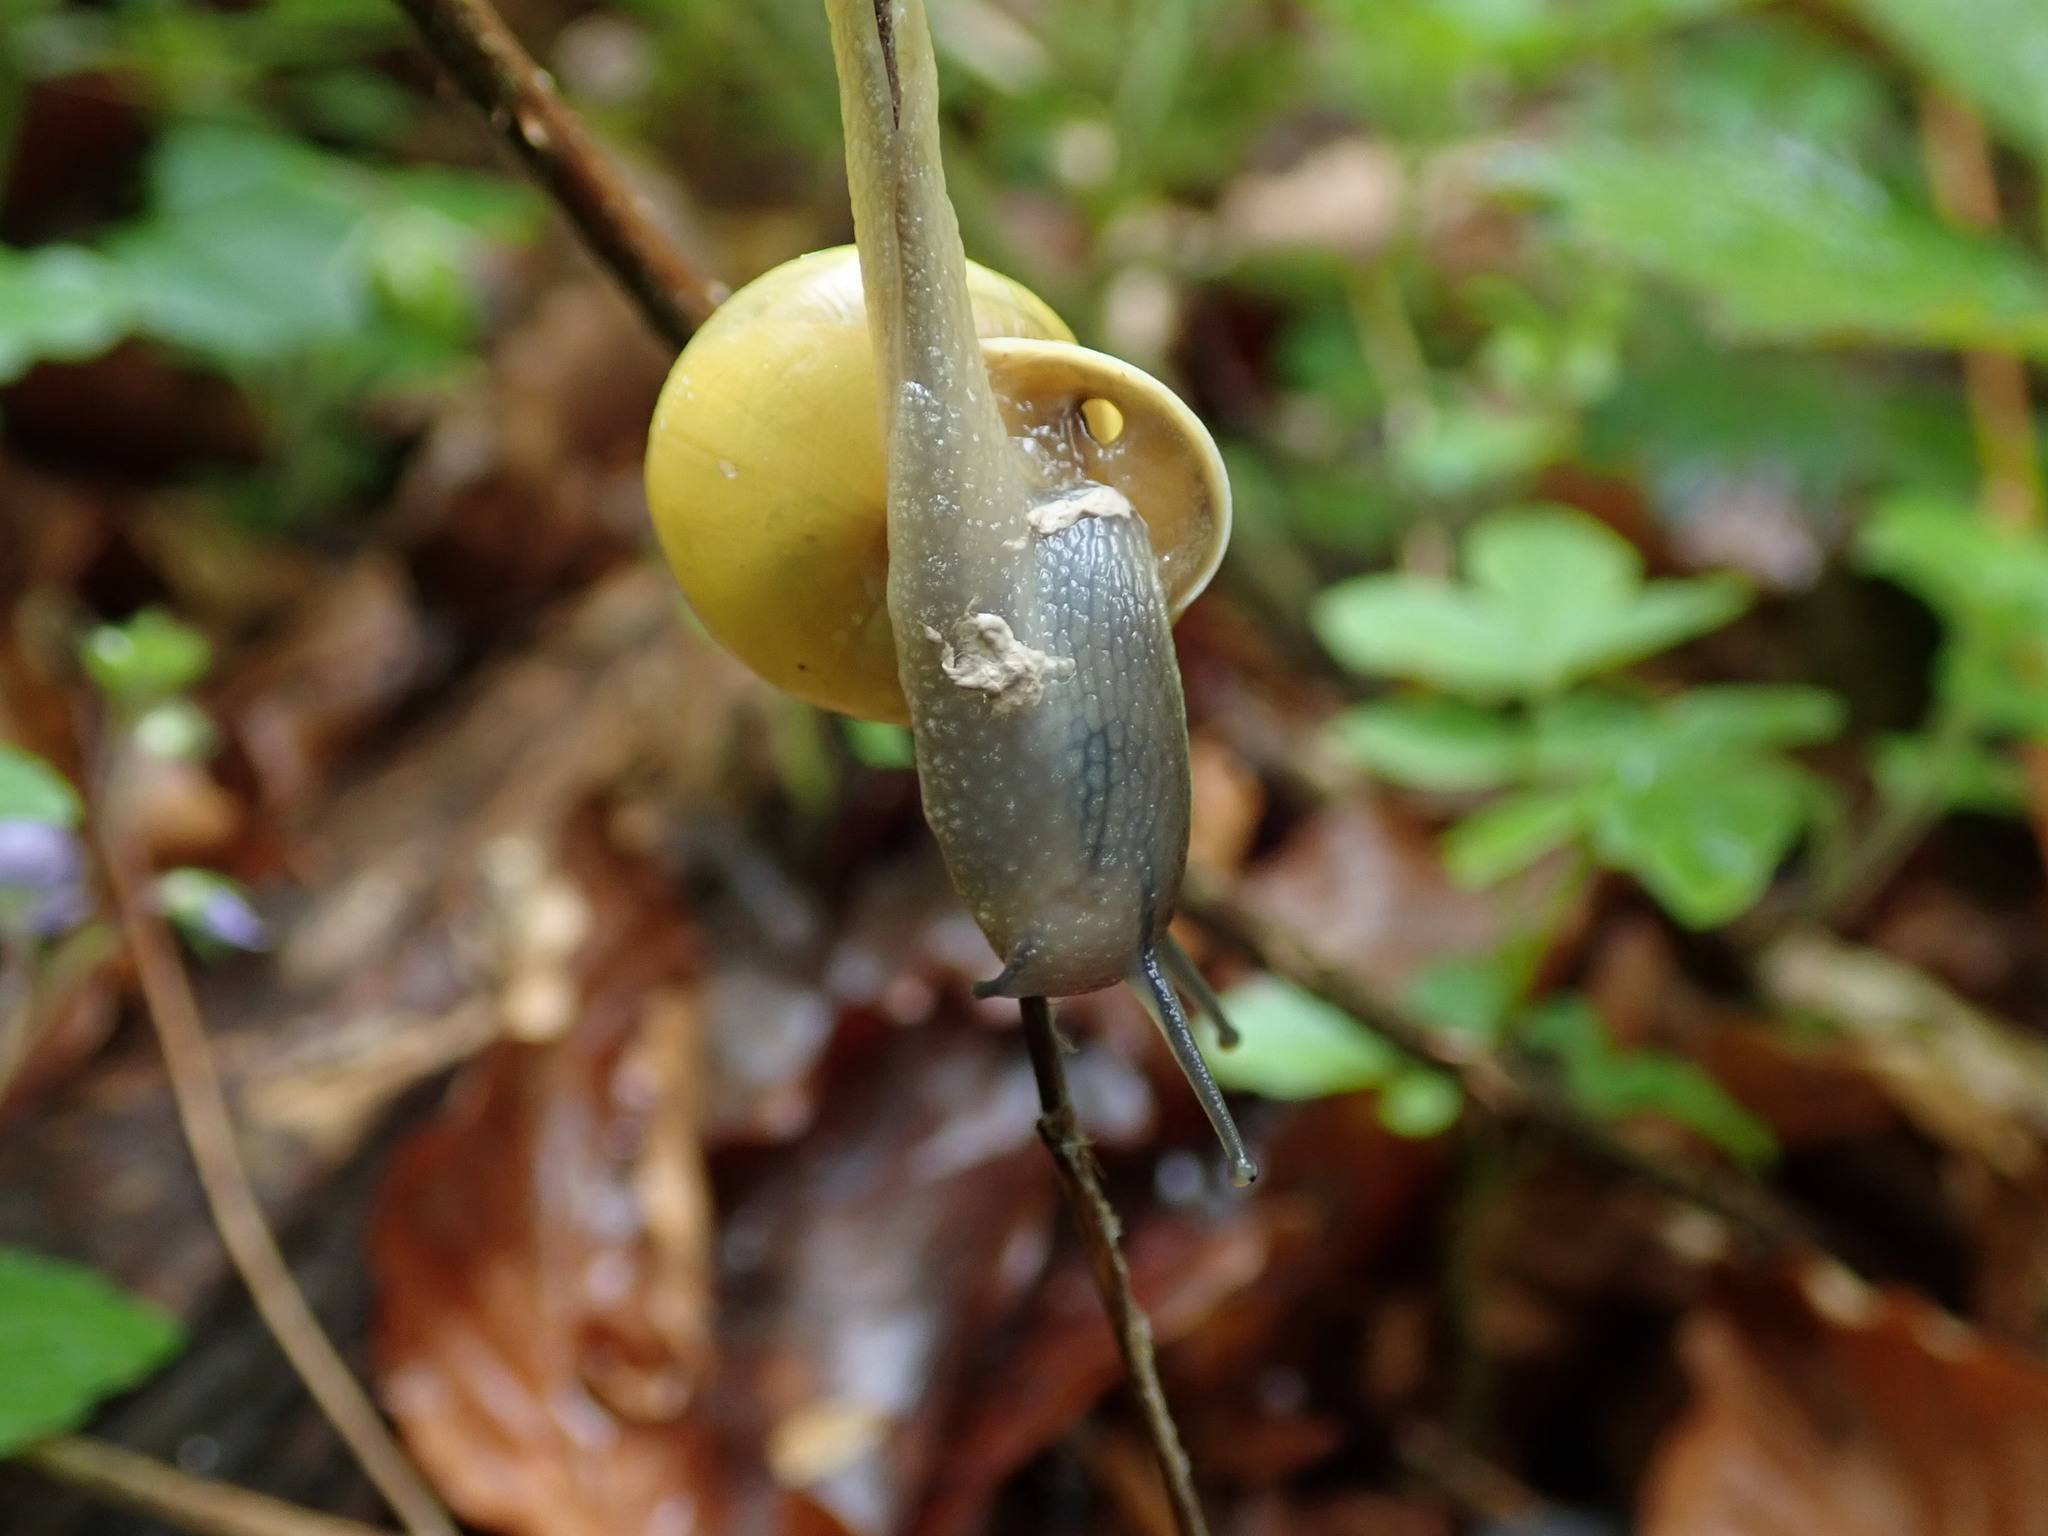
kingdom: Animalia
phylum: Mollusca
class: Gastropoda
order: Stylommatophora
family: Helicidae
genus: Cepaea
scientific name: Cepaea hortensis
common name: White-lip gardensnail
